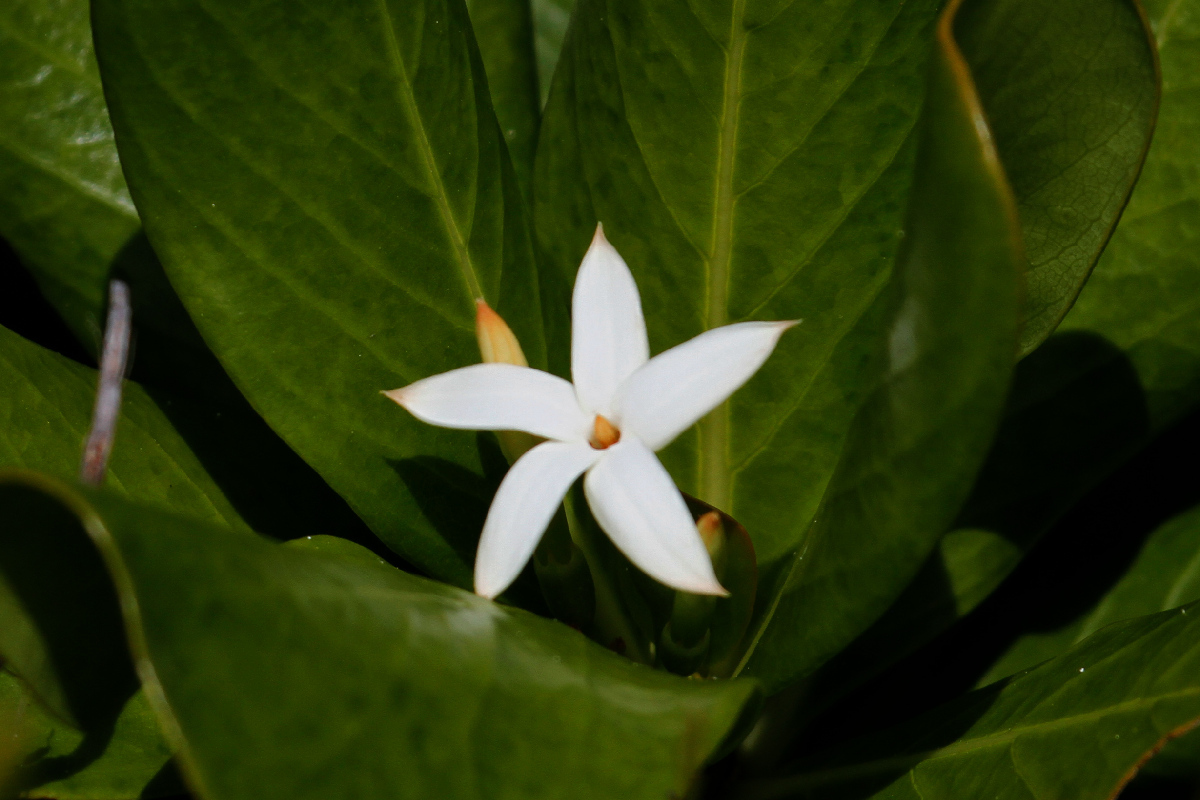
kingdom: Plantae
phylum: Tracheophyta
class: Magnoliopsida
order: Gentianales
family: Rubiaceae
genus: Casasia
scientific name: Casasia clusiifolia
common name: Seven-year apple
